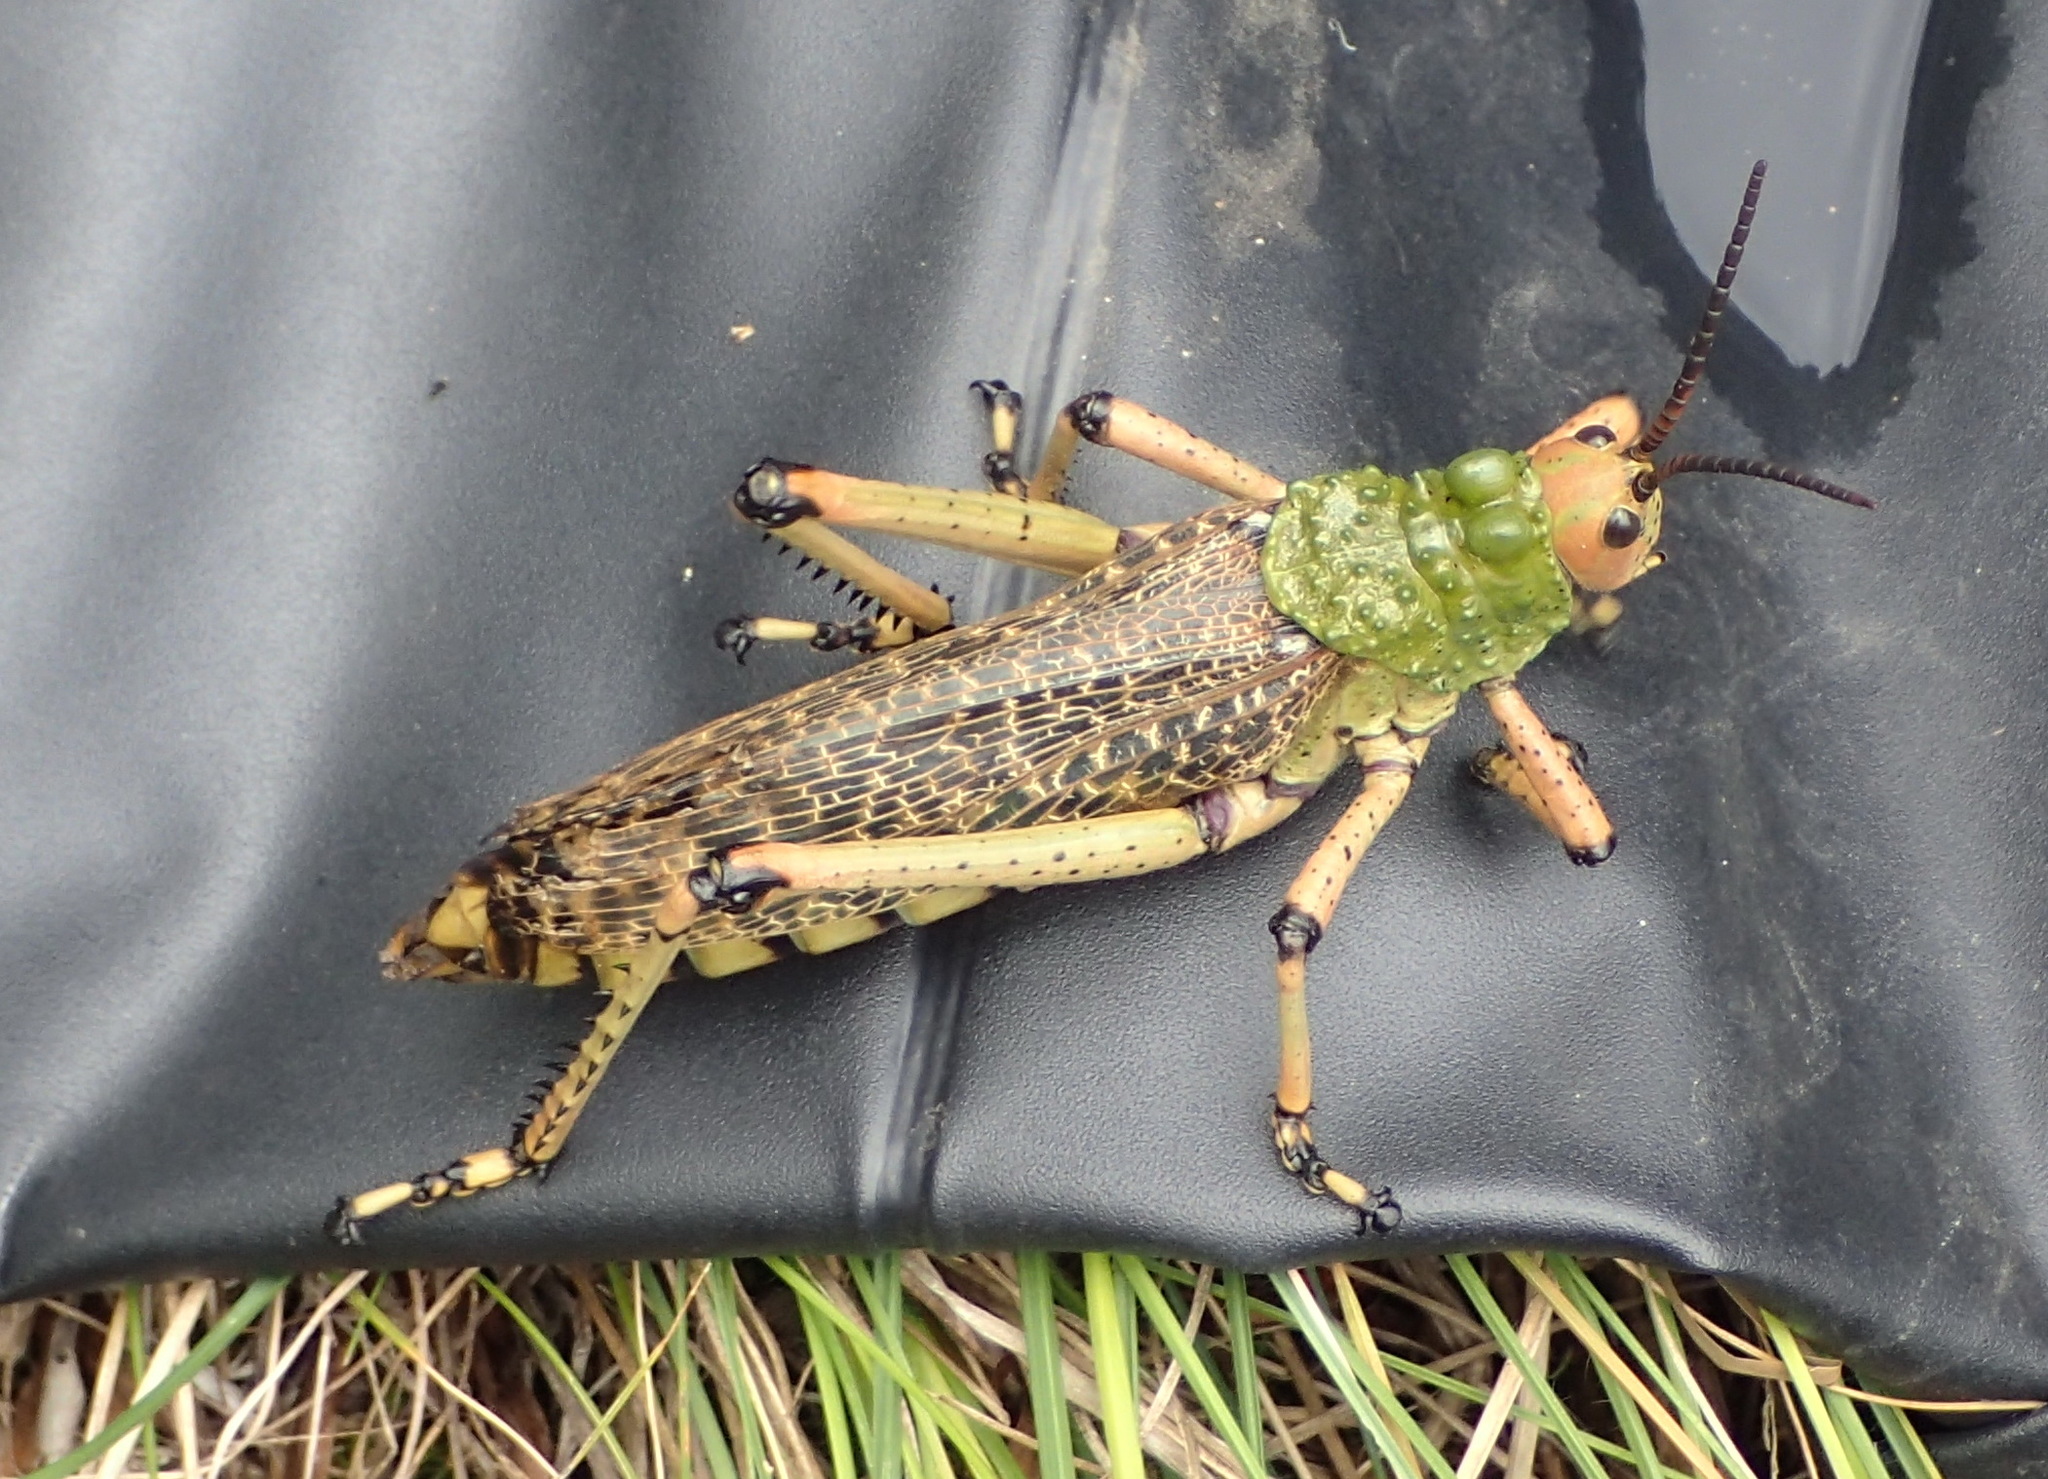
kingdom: Animalia
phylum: Arthropoda
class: Insecta
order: Orthoptera
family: Pyrgomorphidae
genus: Phymateus
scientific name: Phymateus leprosus
